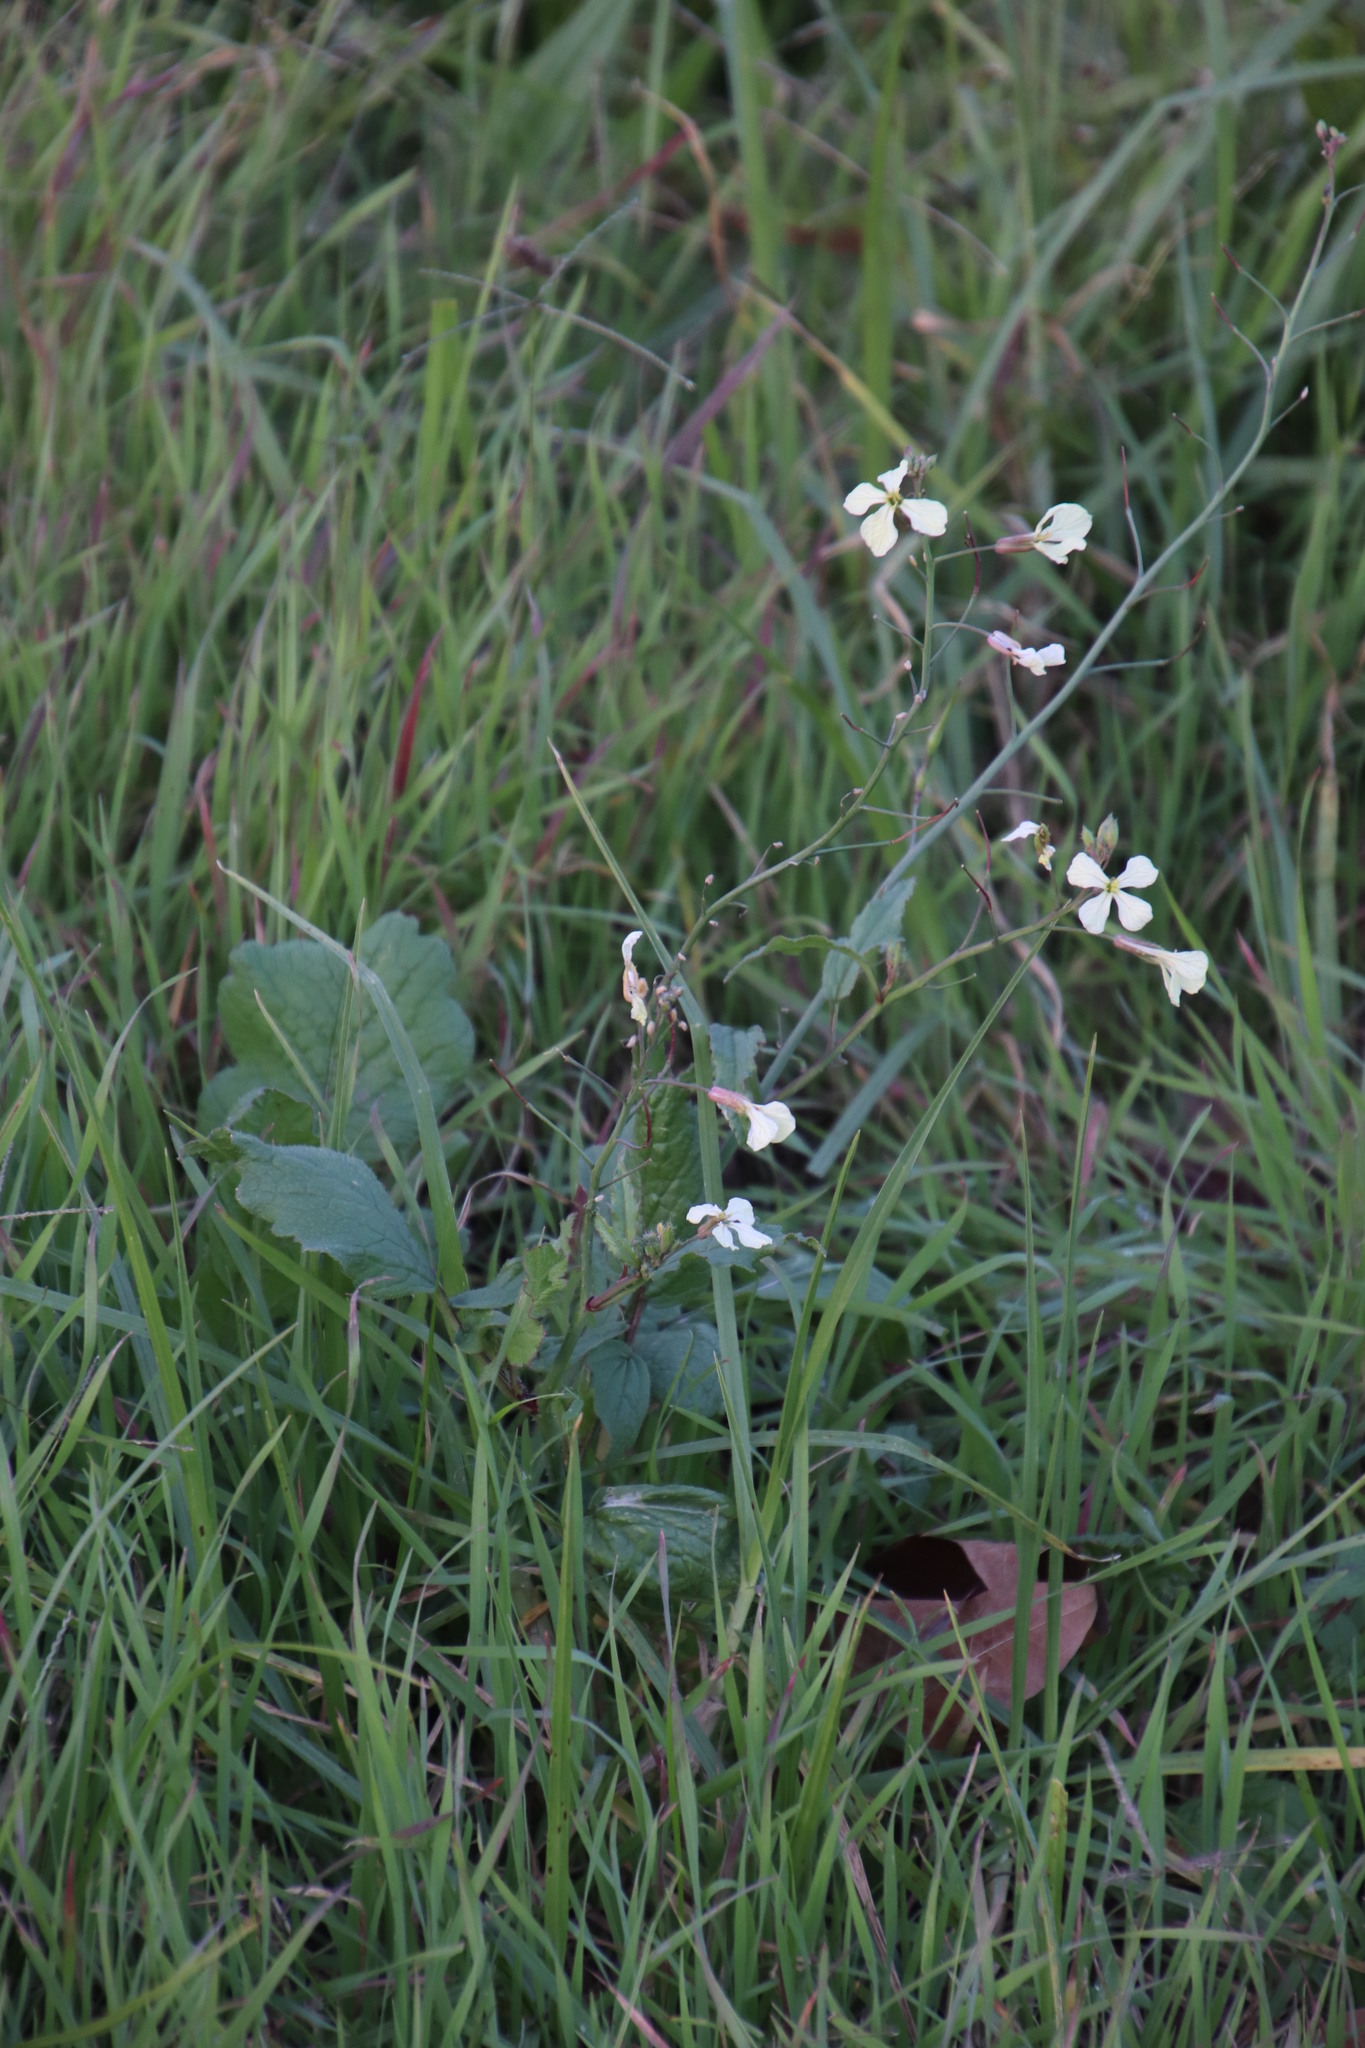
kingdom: Plantae
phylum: Tracheophyta
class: Magnoliopsida
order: Brassicales
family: Brassicaceae
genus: Raphanus
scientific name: Raphanus sativus
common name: Cultivated radish
